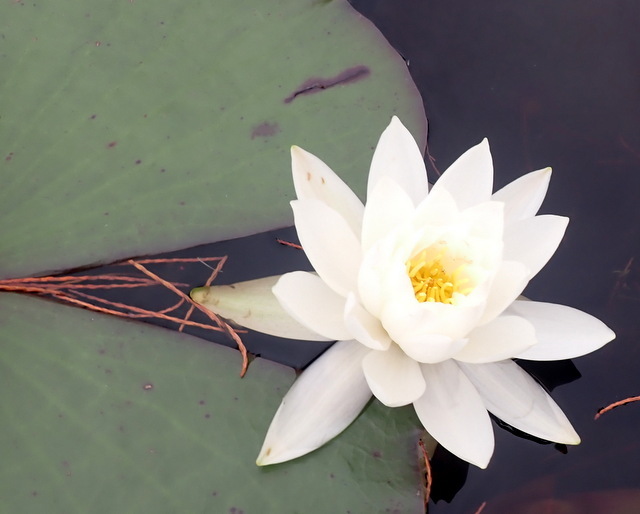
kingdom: Plantae
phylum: Tracheophyta
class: Magnoliopsida
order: Nymphaeales
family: Nymphaeaceae
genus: Nymphaea
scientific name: Nymphaea odorata
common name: Fragrant water-lily
